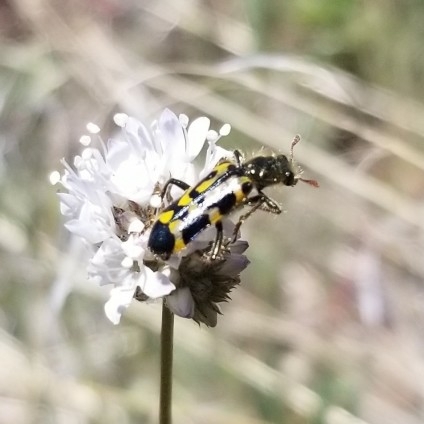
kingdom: Animalia
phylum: Arthropoda
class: Insecta
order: Coleoptera
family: Cleridae
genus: Trichodes
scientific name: Trichodes ornatus
